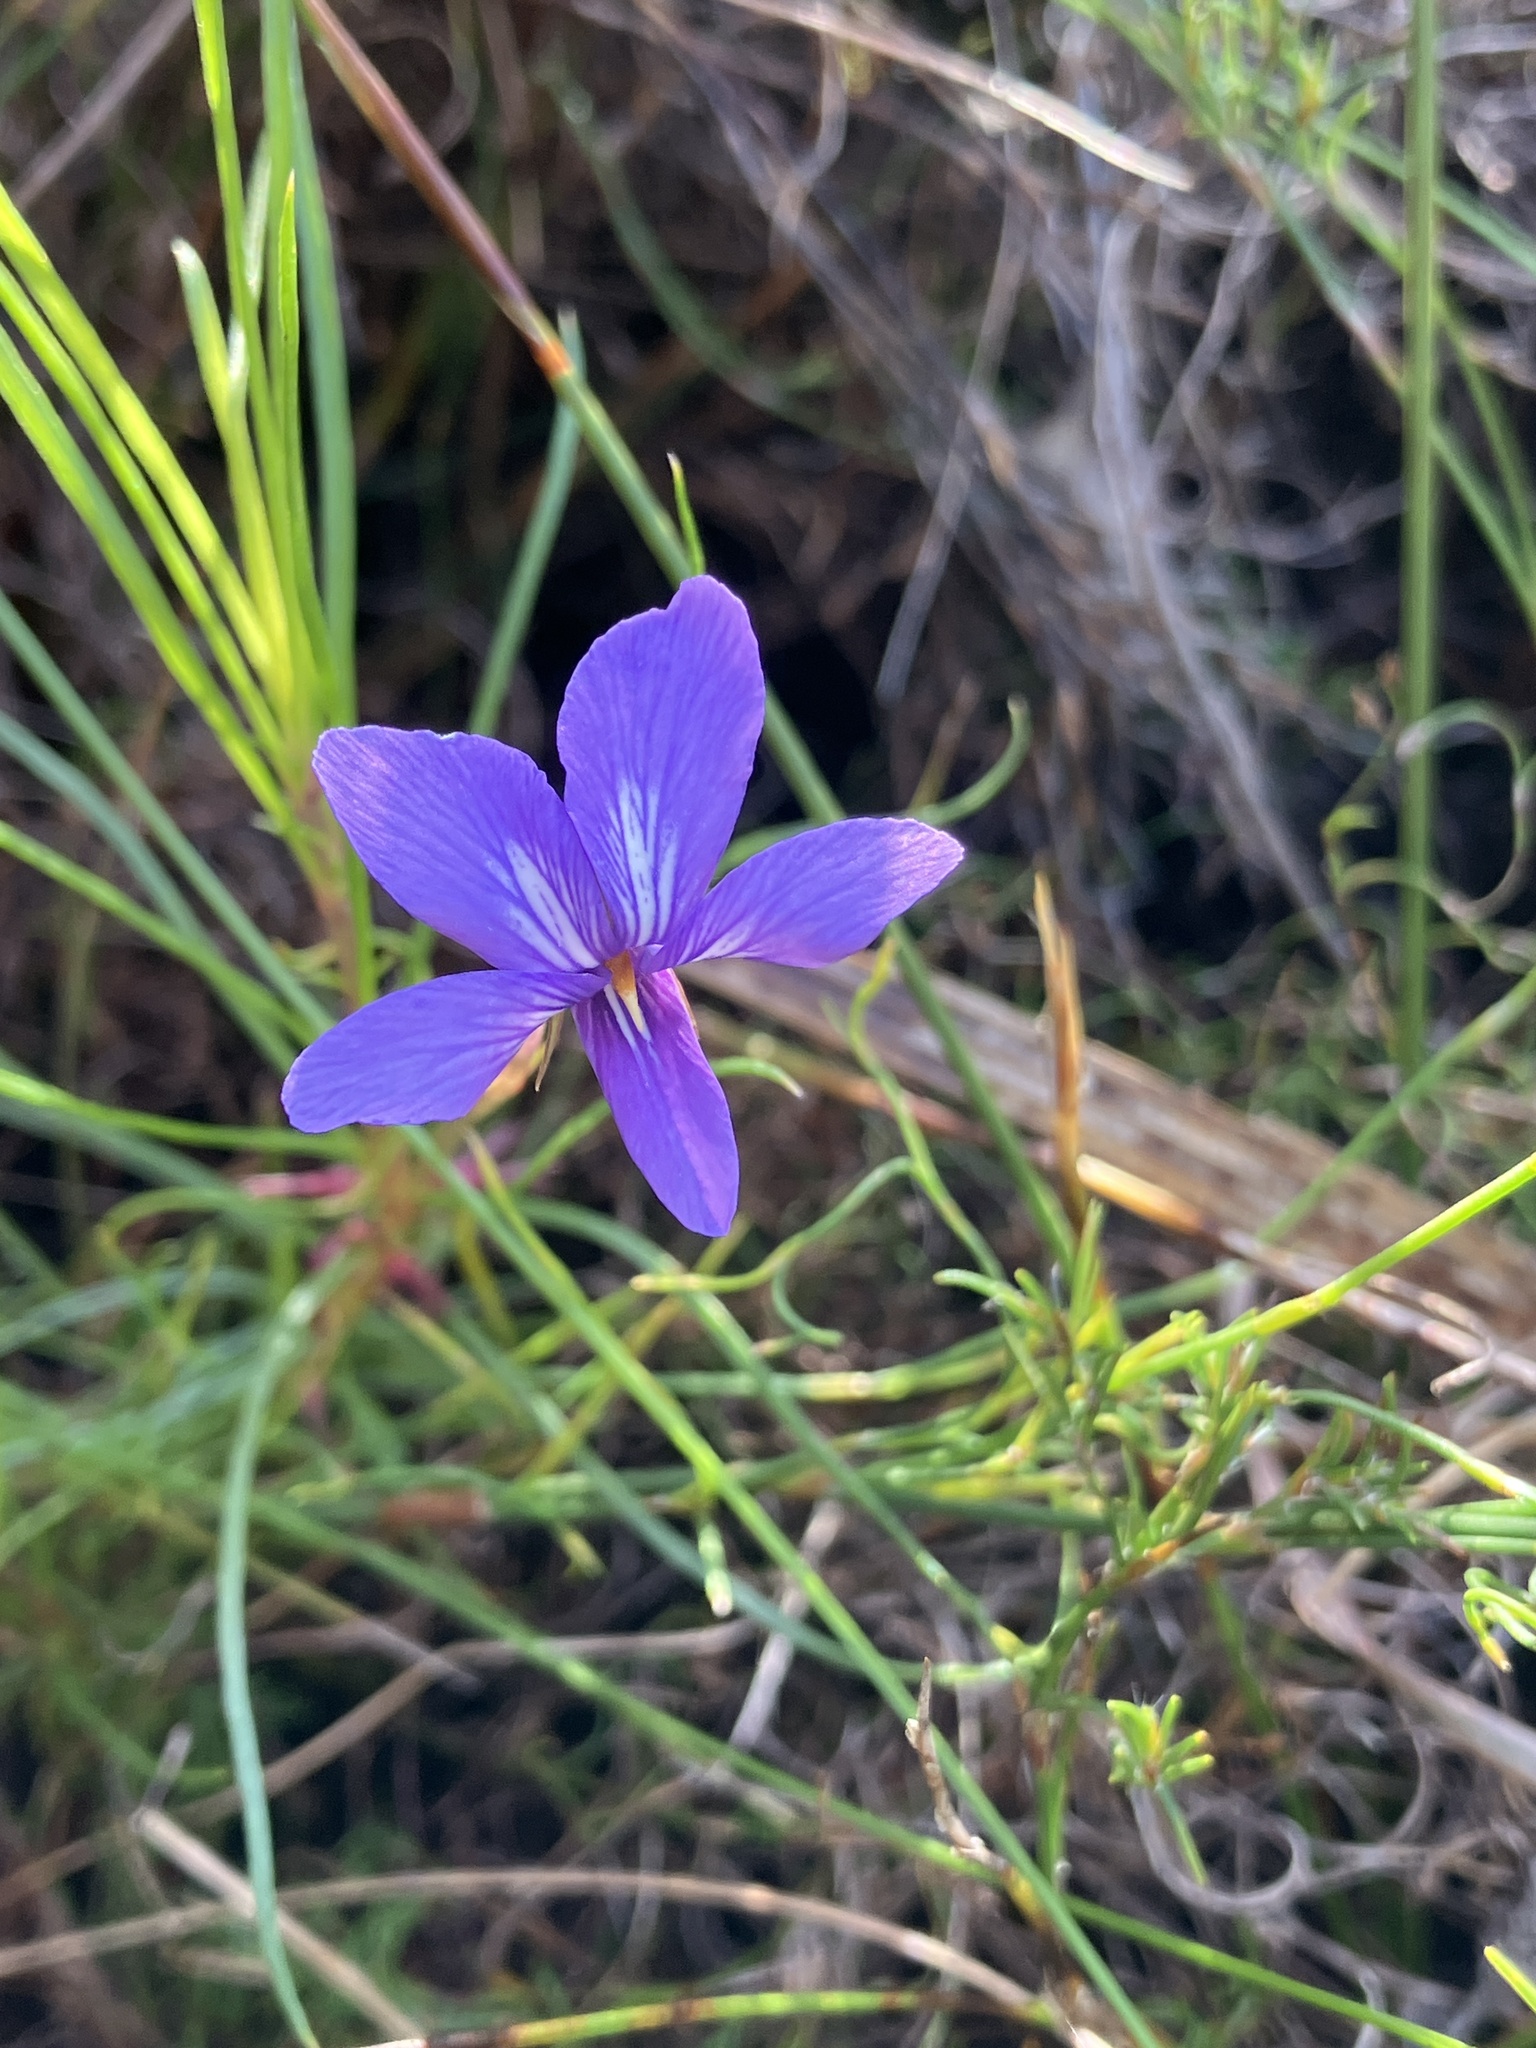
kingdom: Plantae
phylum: Tracheophyta
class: Magnoliopsida
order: Malpighiales
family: Violaceae
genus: Viola
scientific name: Viola decumbens
